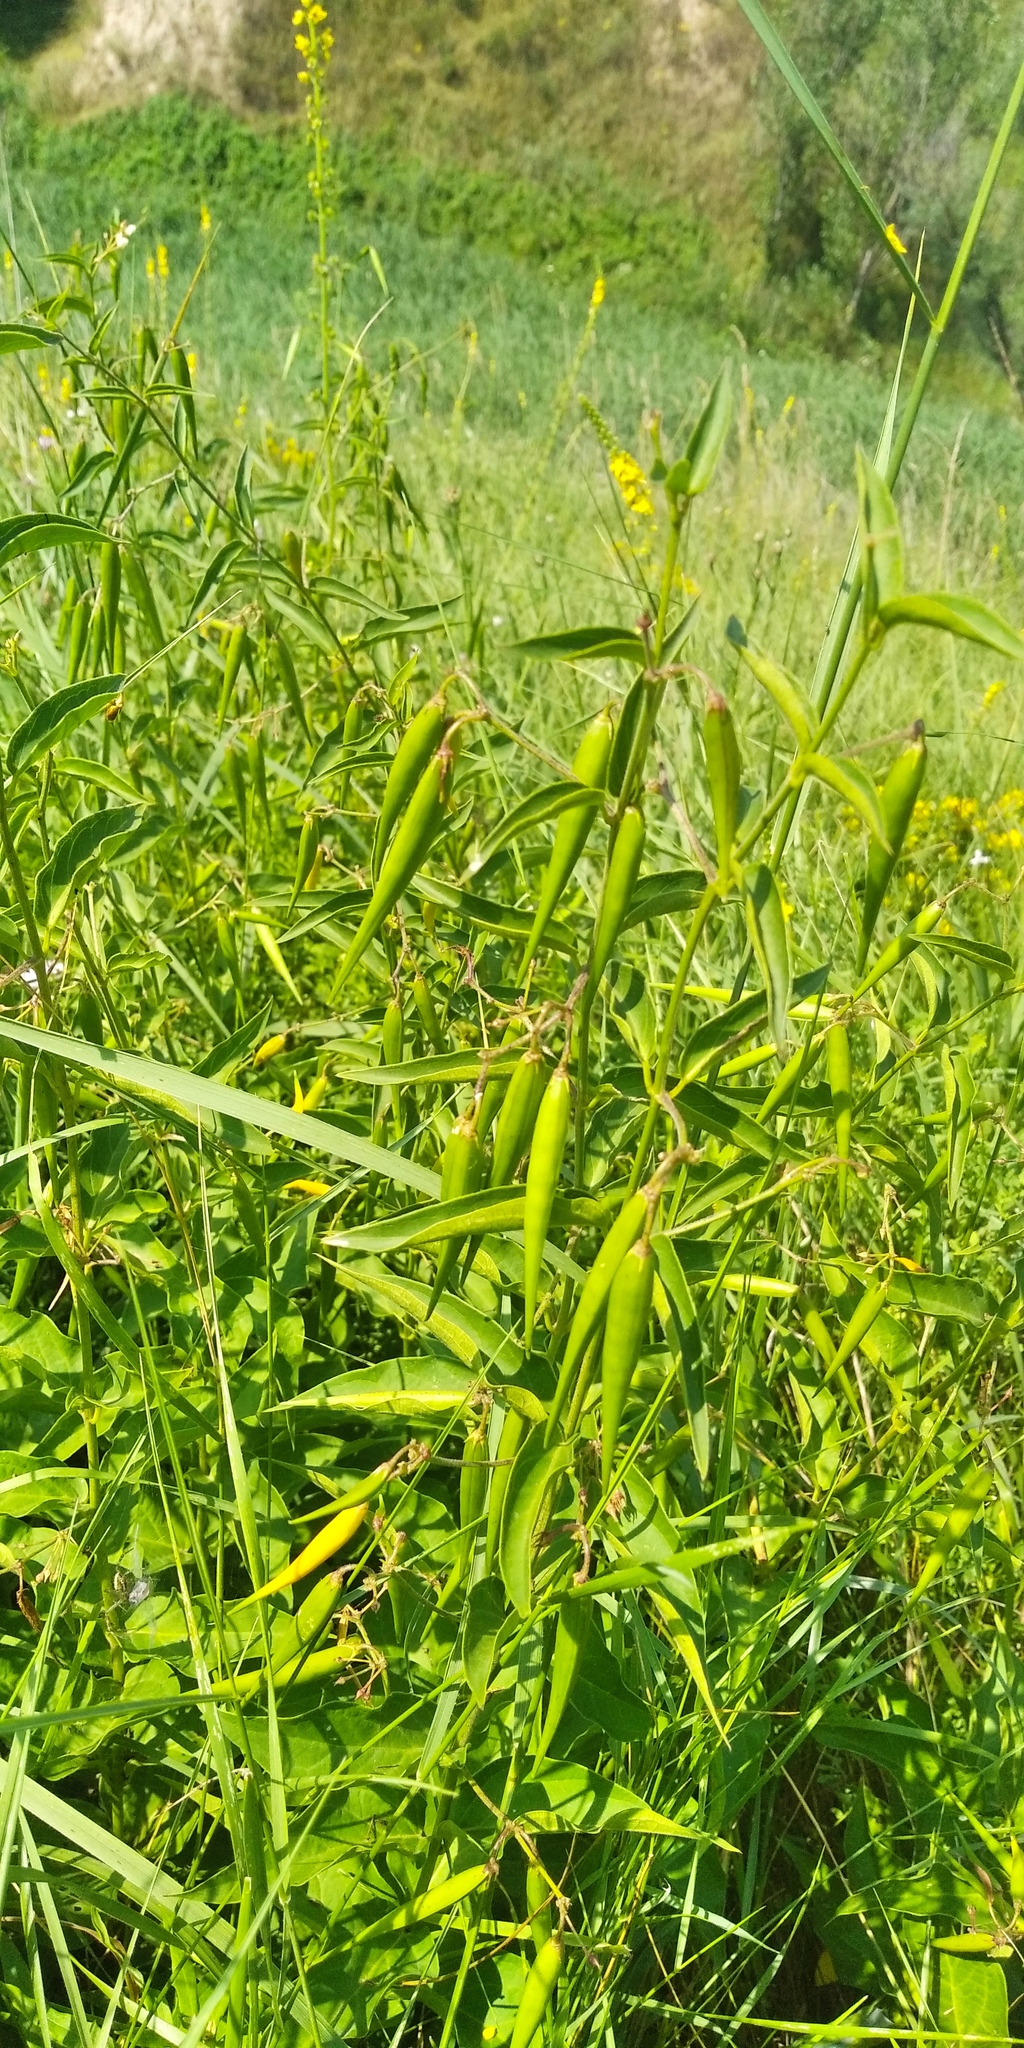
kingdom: Plantae
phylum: Tracheophyta
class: Magnoliopsida
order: Gentianales
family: Apocynaceae
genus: Vincetoxicum
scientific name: Vincetoxicum hirundinaria
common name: White swallowwort
